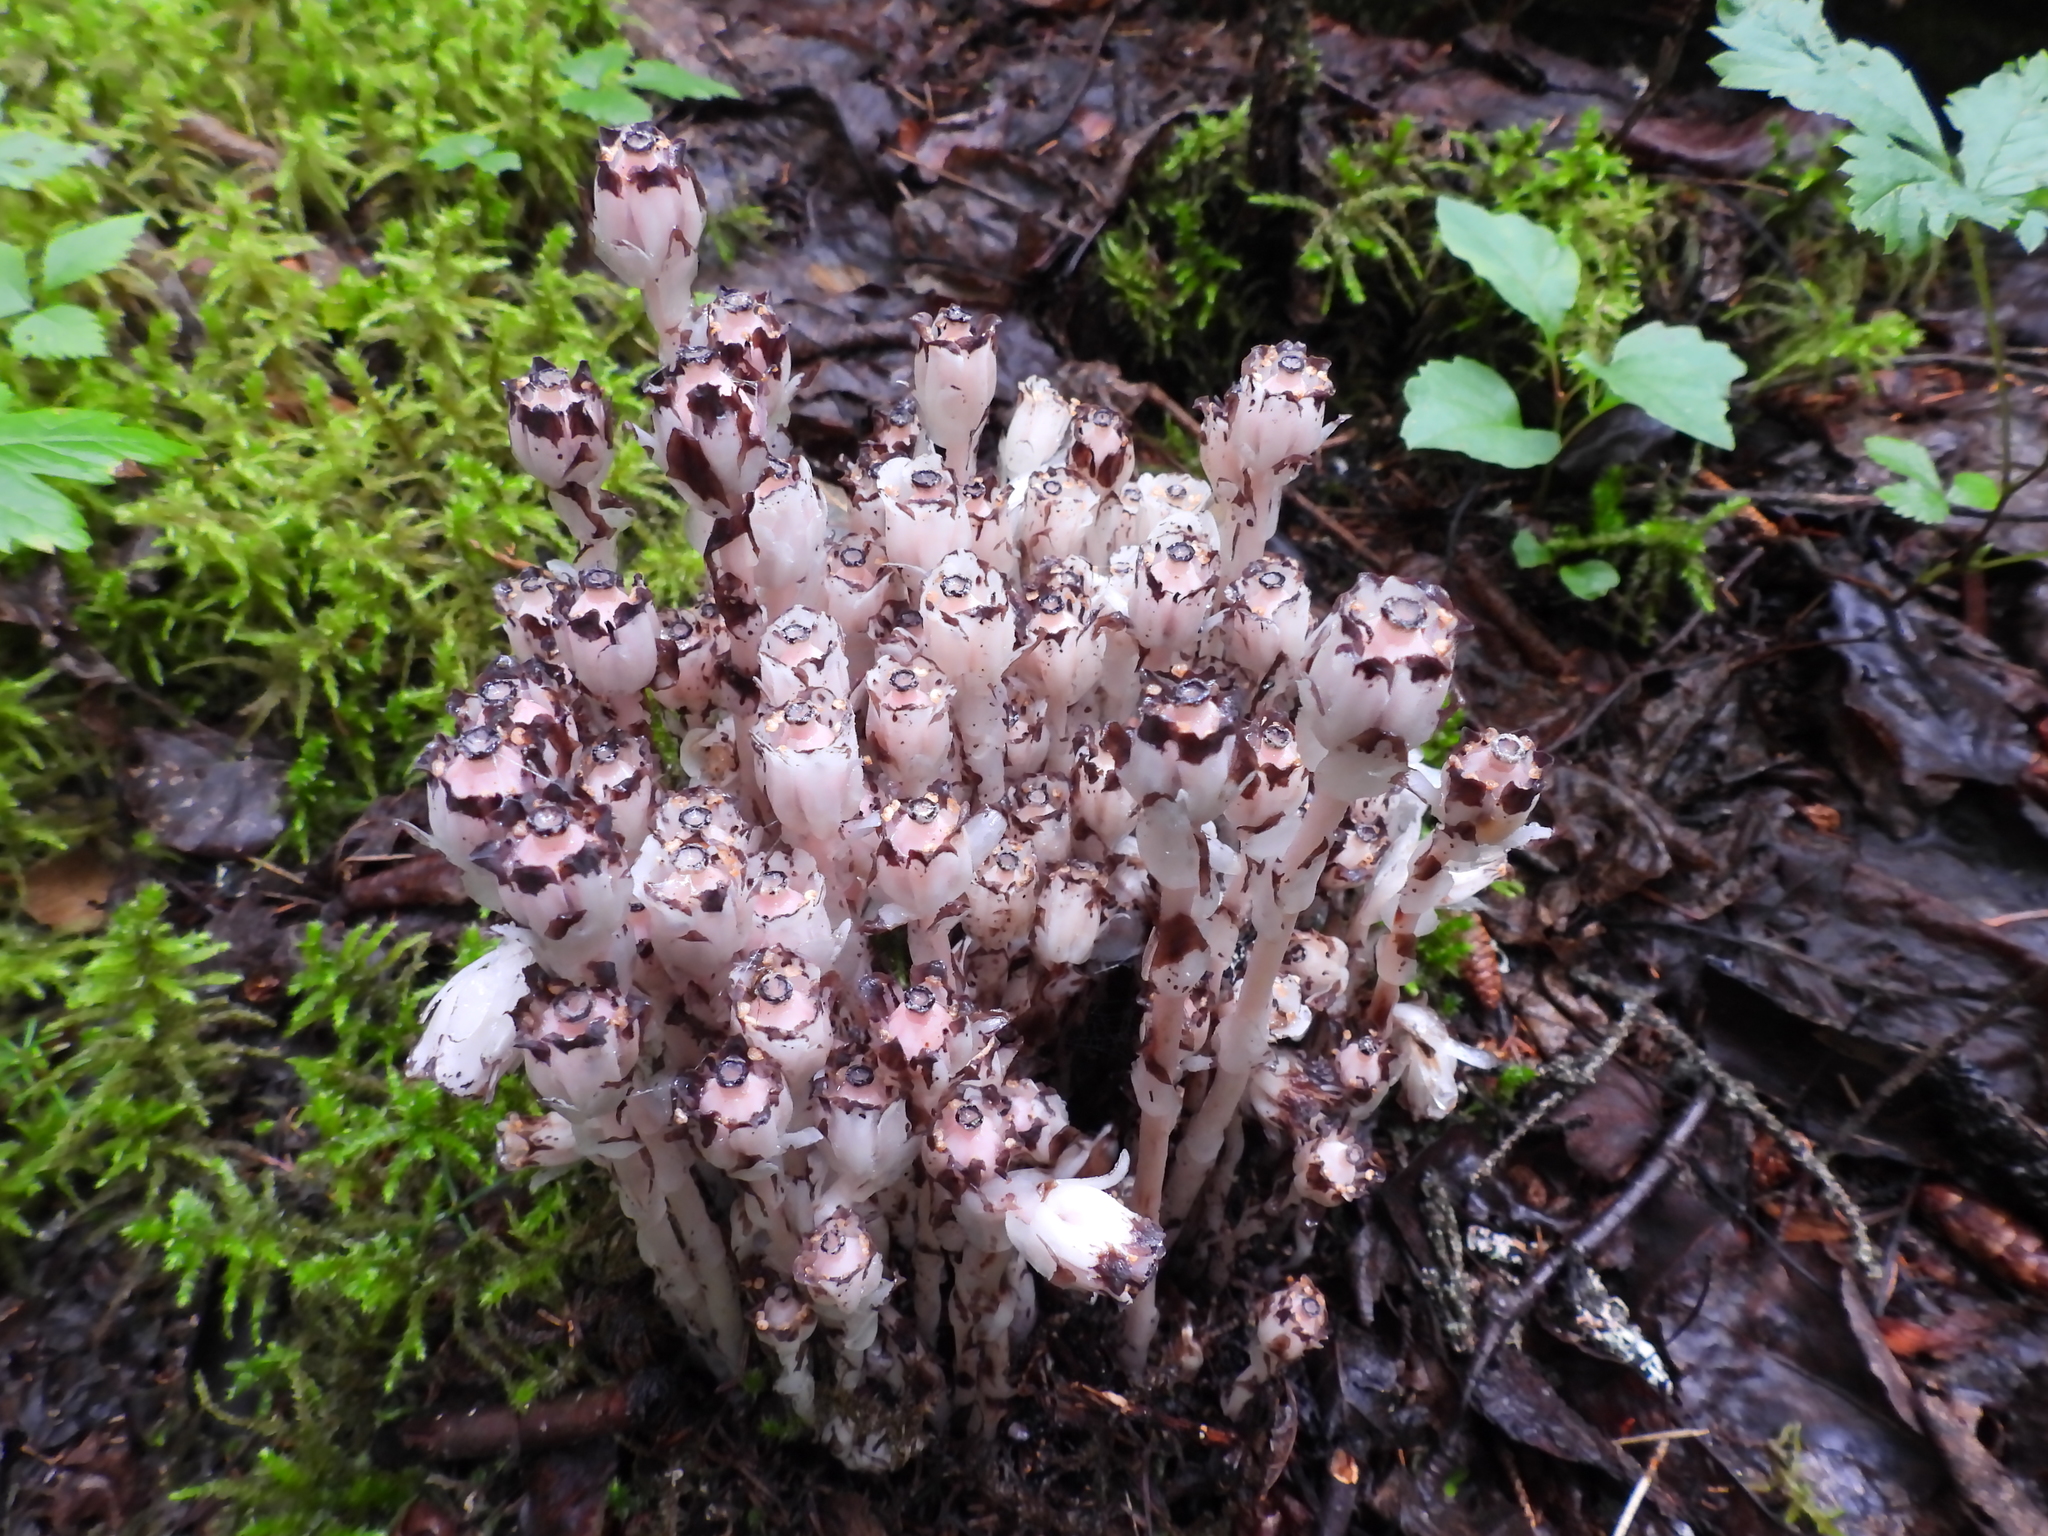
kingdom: Plantae
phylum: Tracheophyta
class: Magnoliopsida
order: Ericales
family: Ericaceae
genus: Monotropa
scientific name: Monotropa uniflora
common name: Convulsion root
